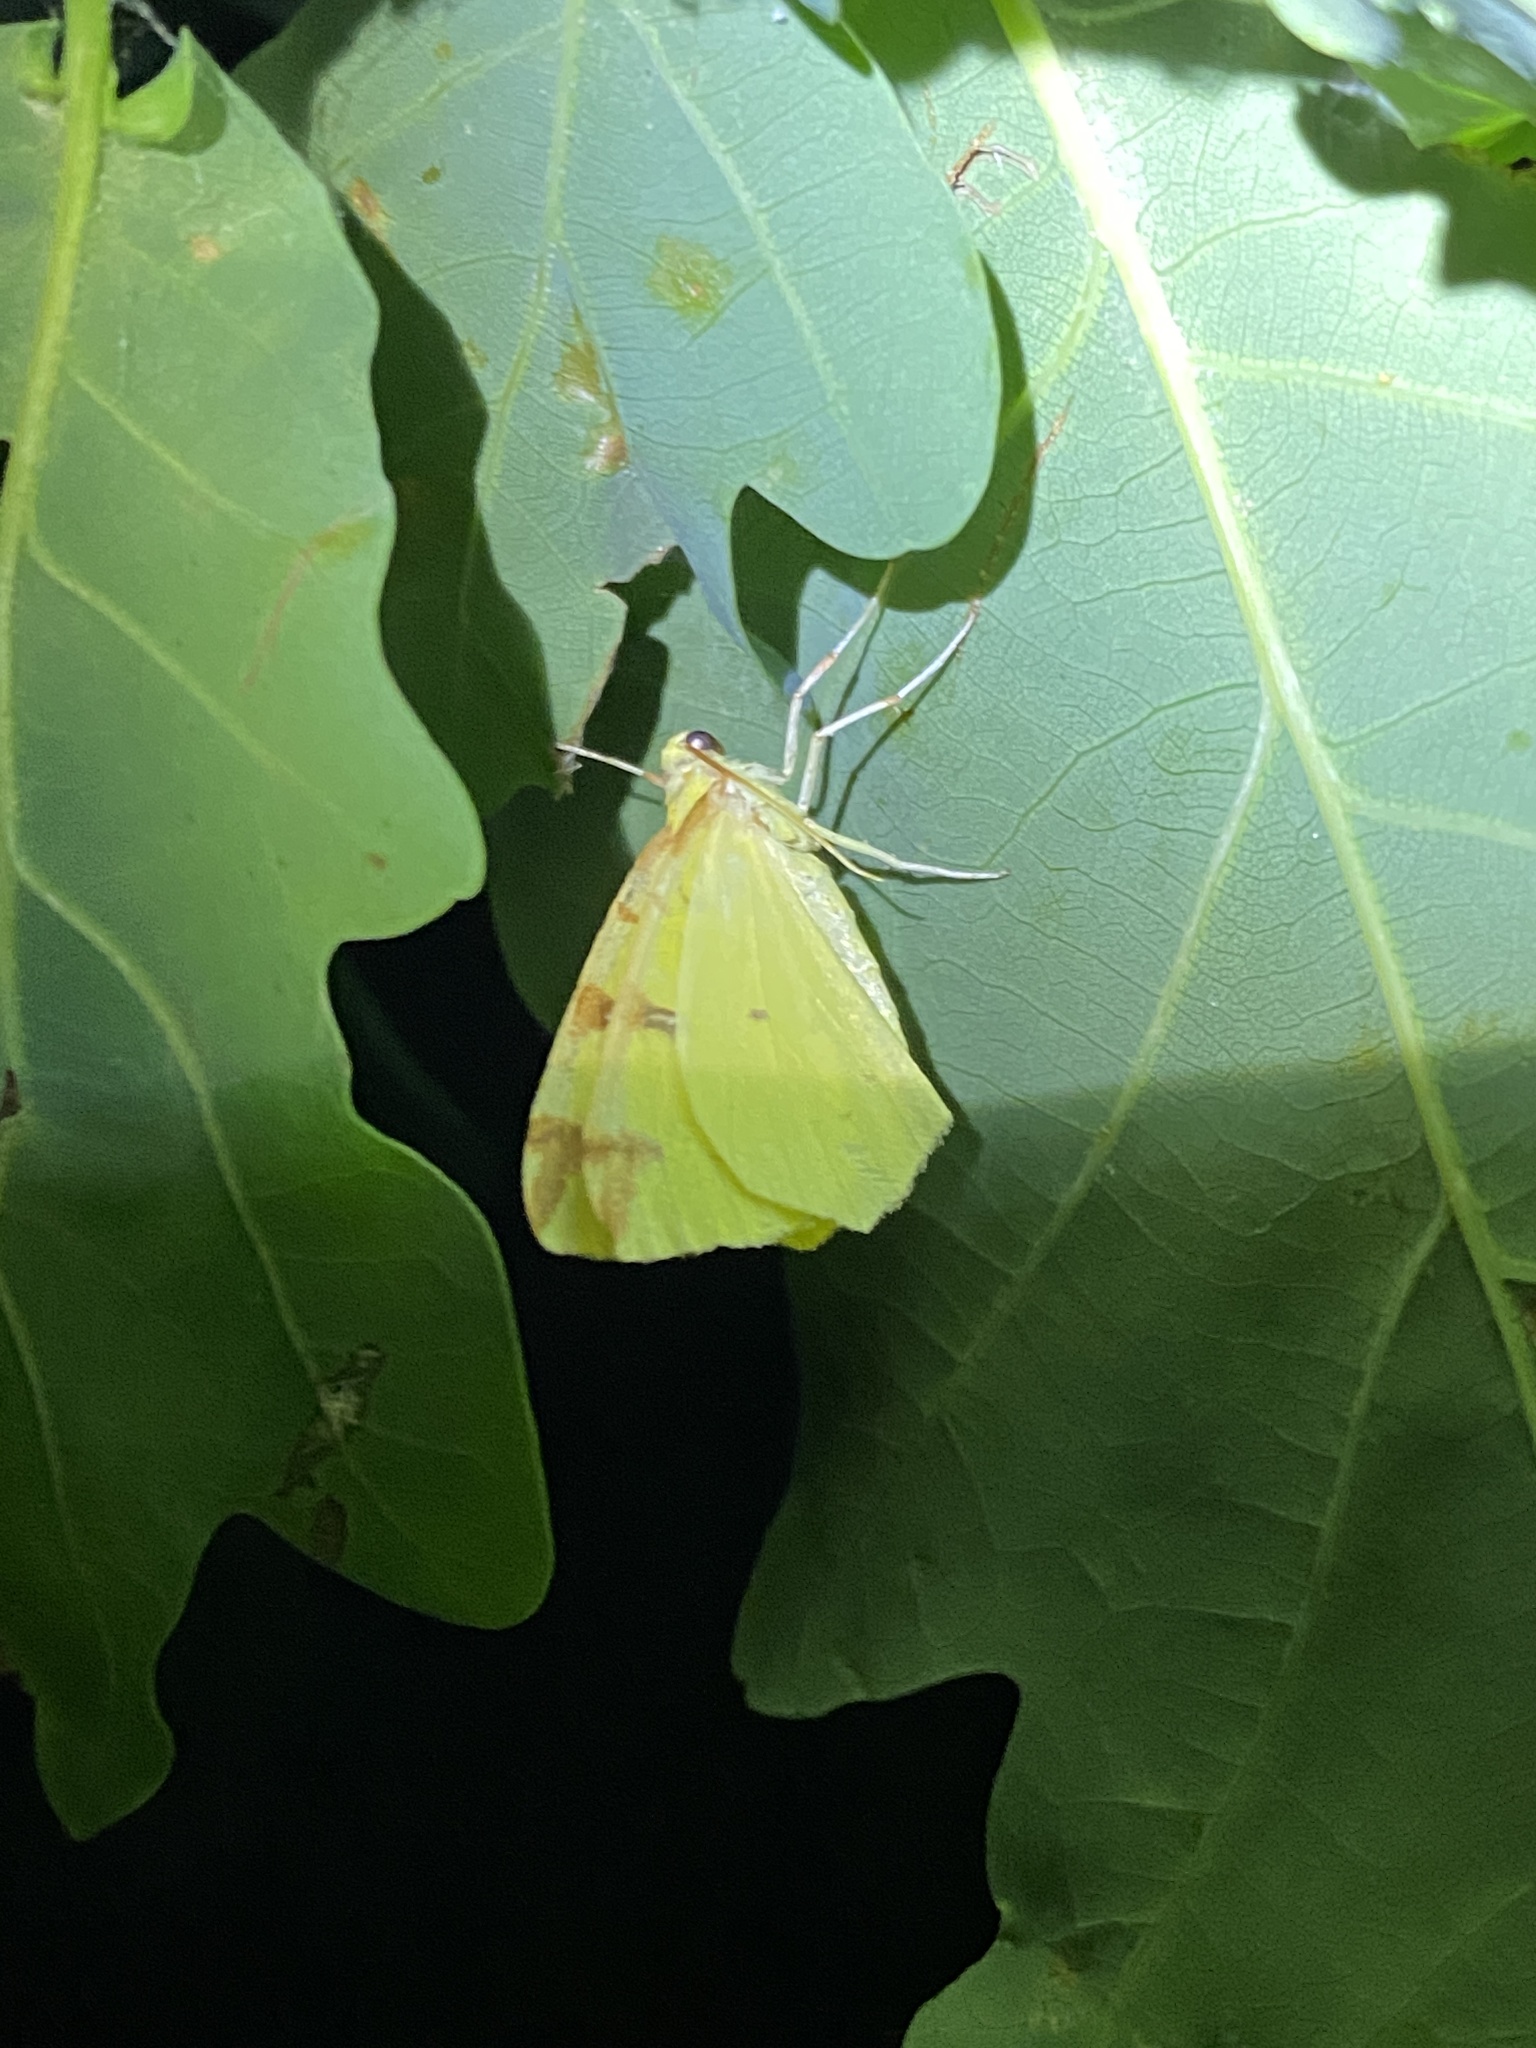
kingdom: Animalia
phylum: Arthropoda
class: Insecta
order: Lepidoptera
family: Geometridae
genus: Opisthograptis
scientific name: Opisthograptis luteolata
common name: Brimstone moth
